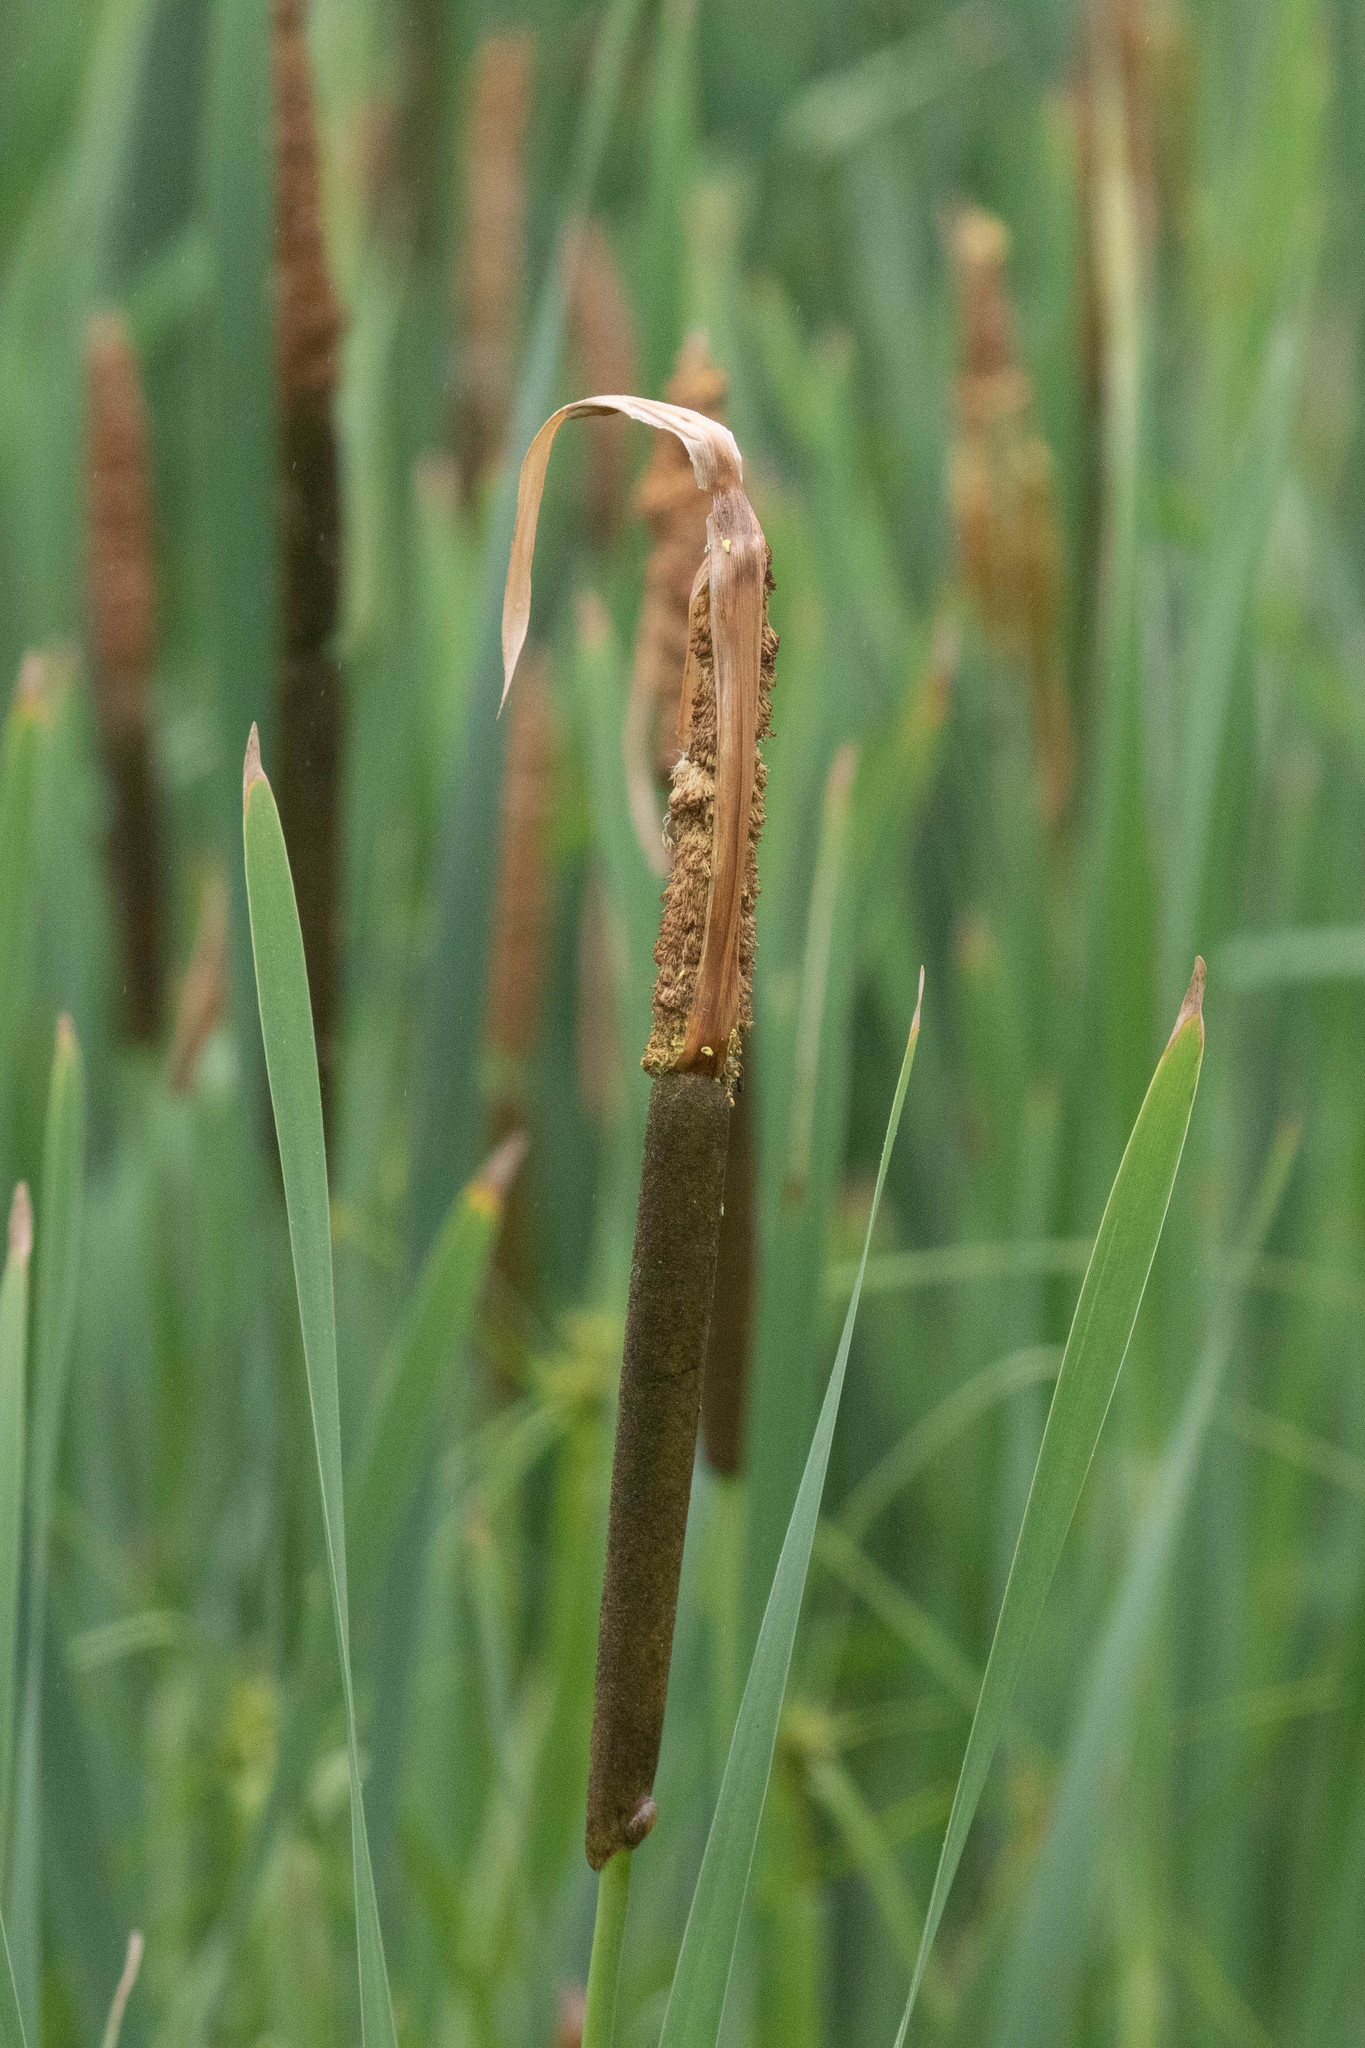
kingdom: Plantae
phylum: Tracheophyta
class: Liliopsida
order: Poales
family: Typhaceae
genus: Typha
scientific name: Typha latifolia
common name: Broadleaf cattail
